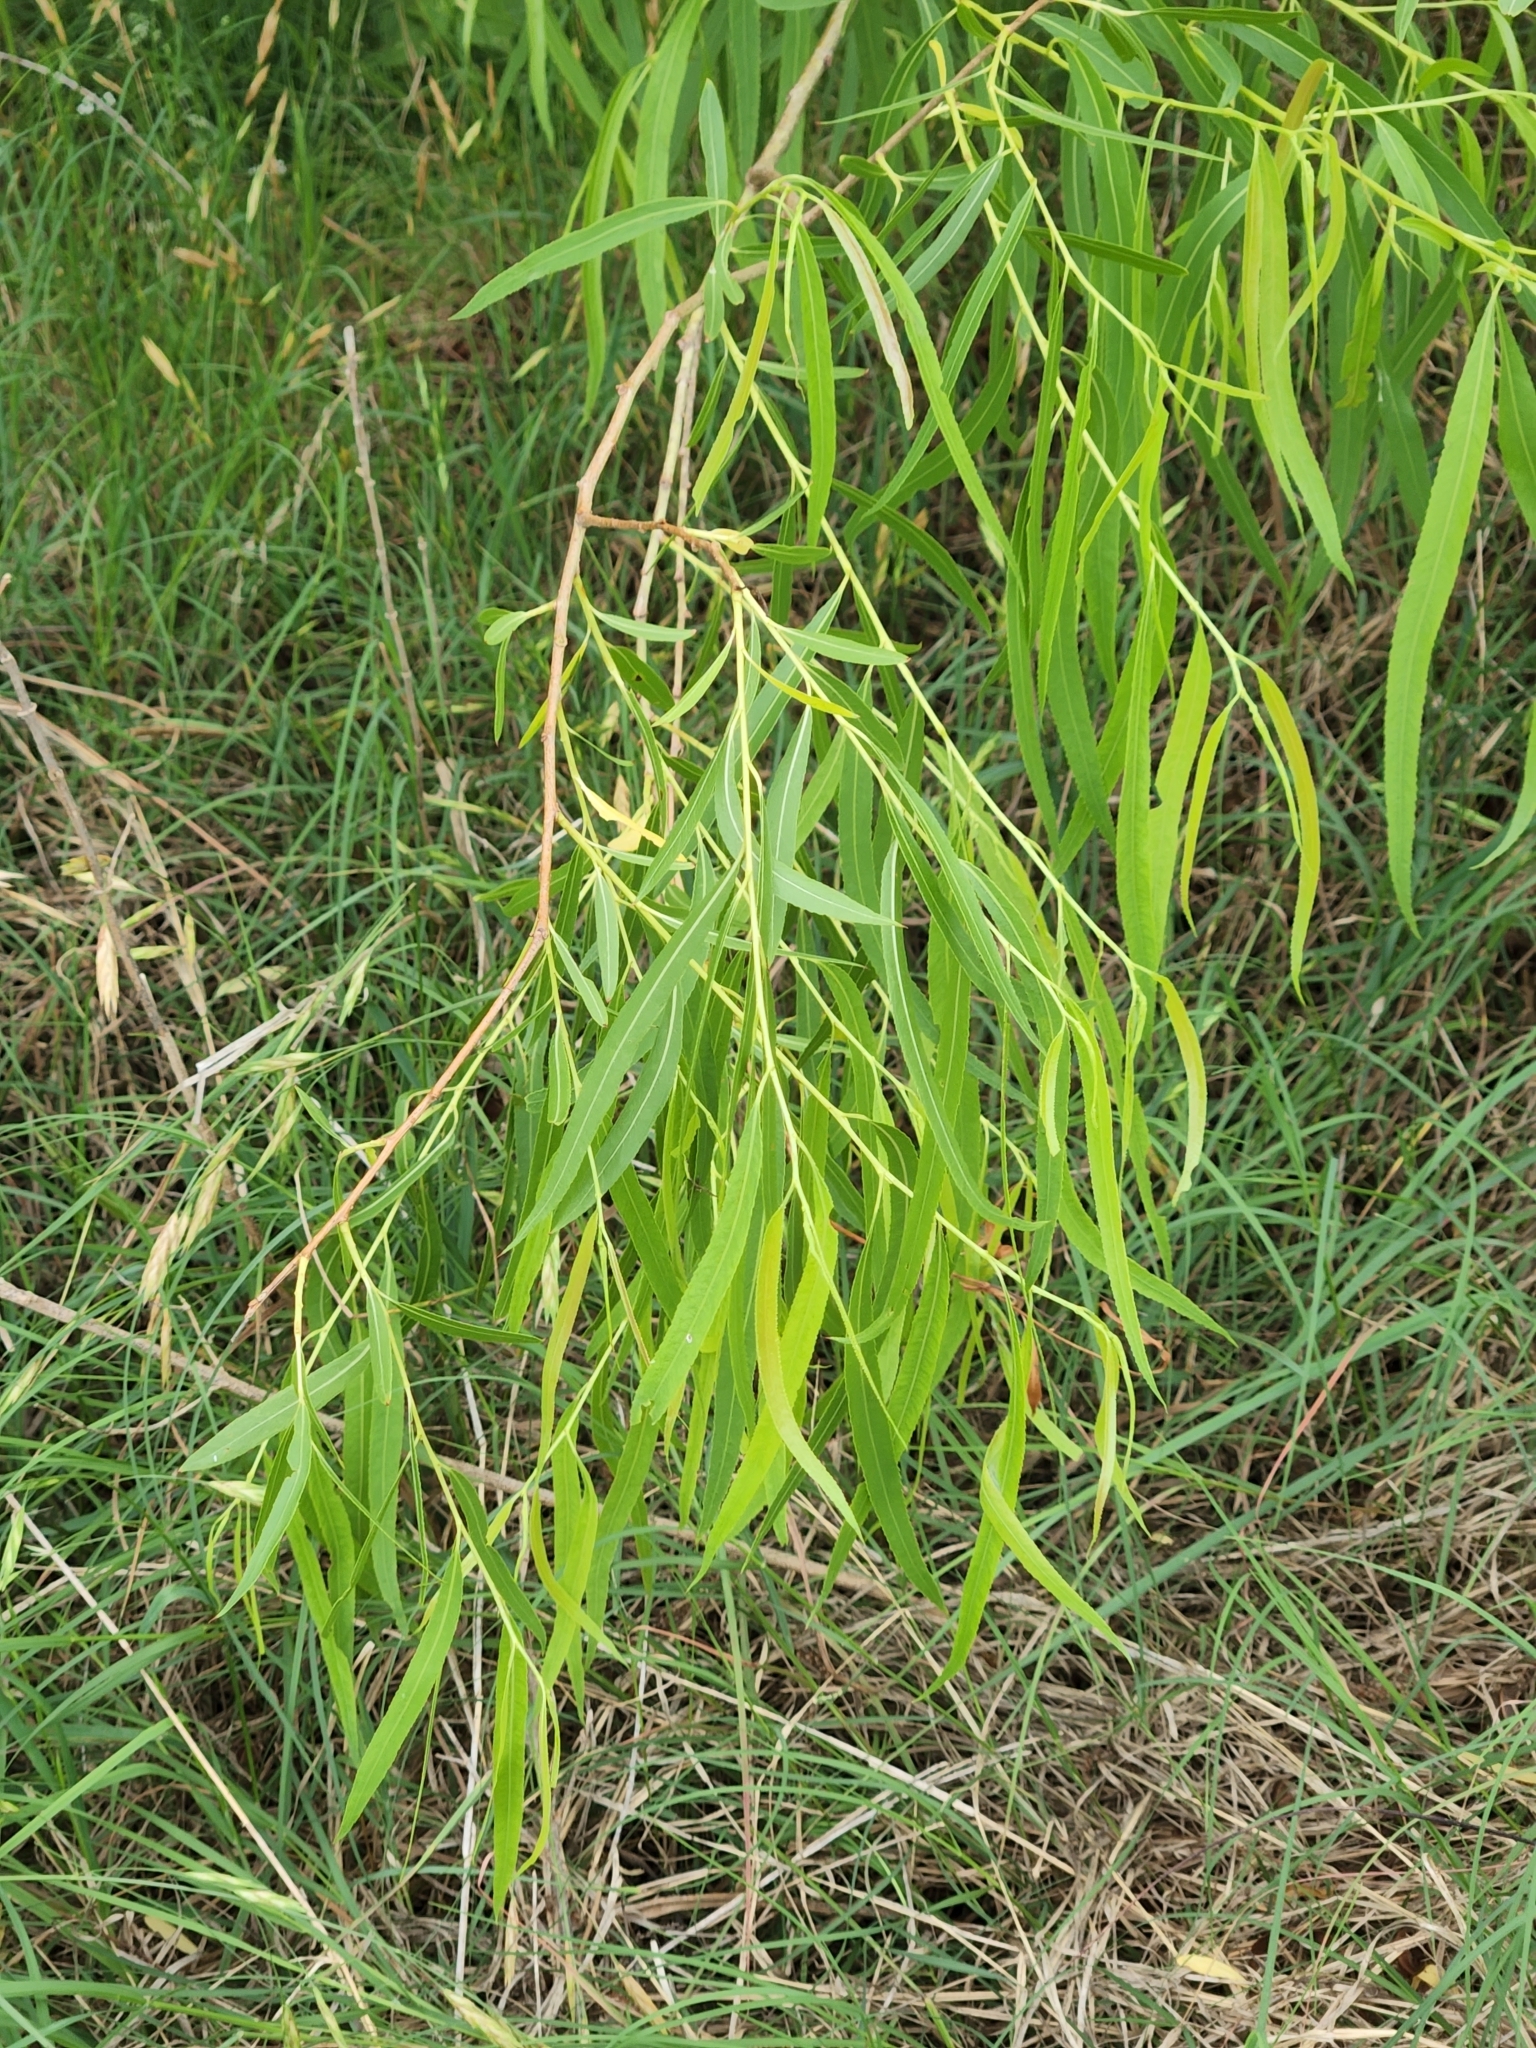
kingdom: Plantae
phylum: Tracheophyta
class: Magnoliopsida
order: Malpighiales
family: Salicaceae
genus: Salix
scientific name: Salix nigra
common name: Black willow
